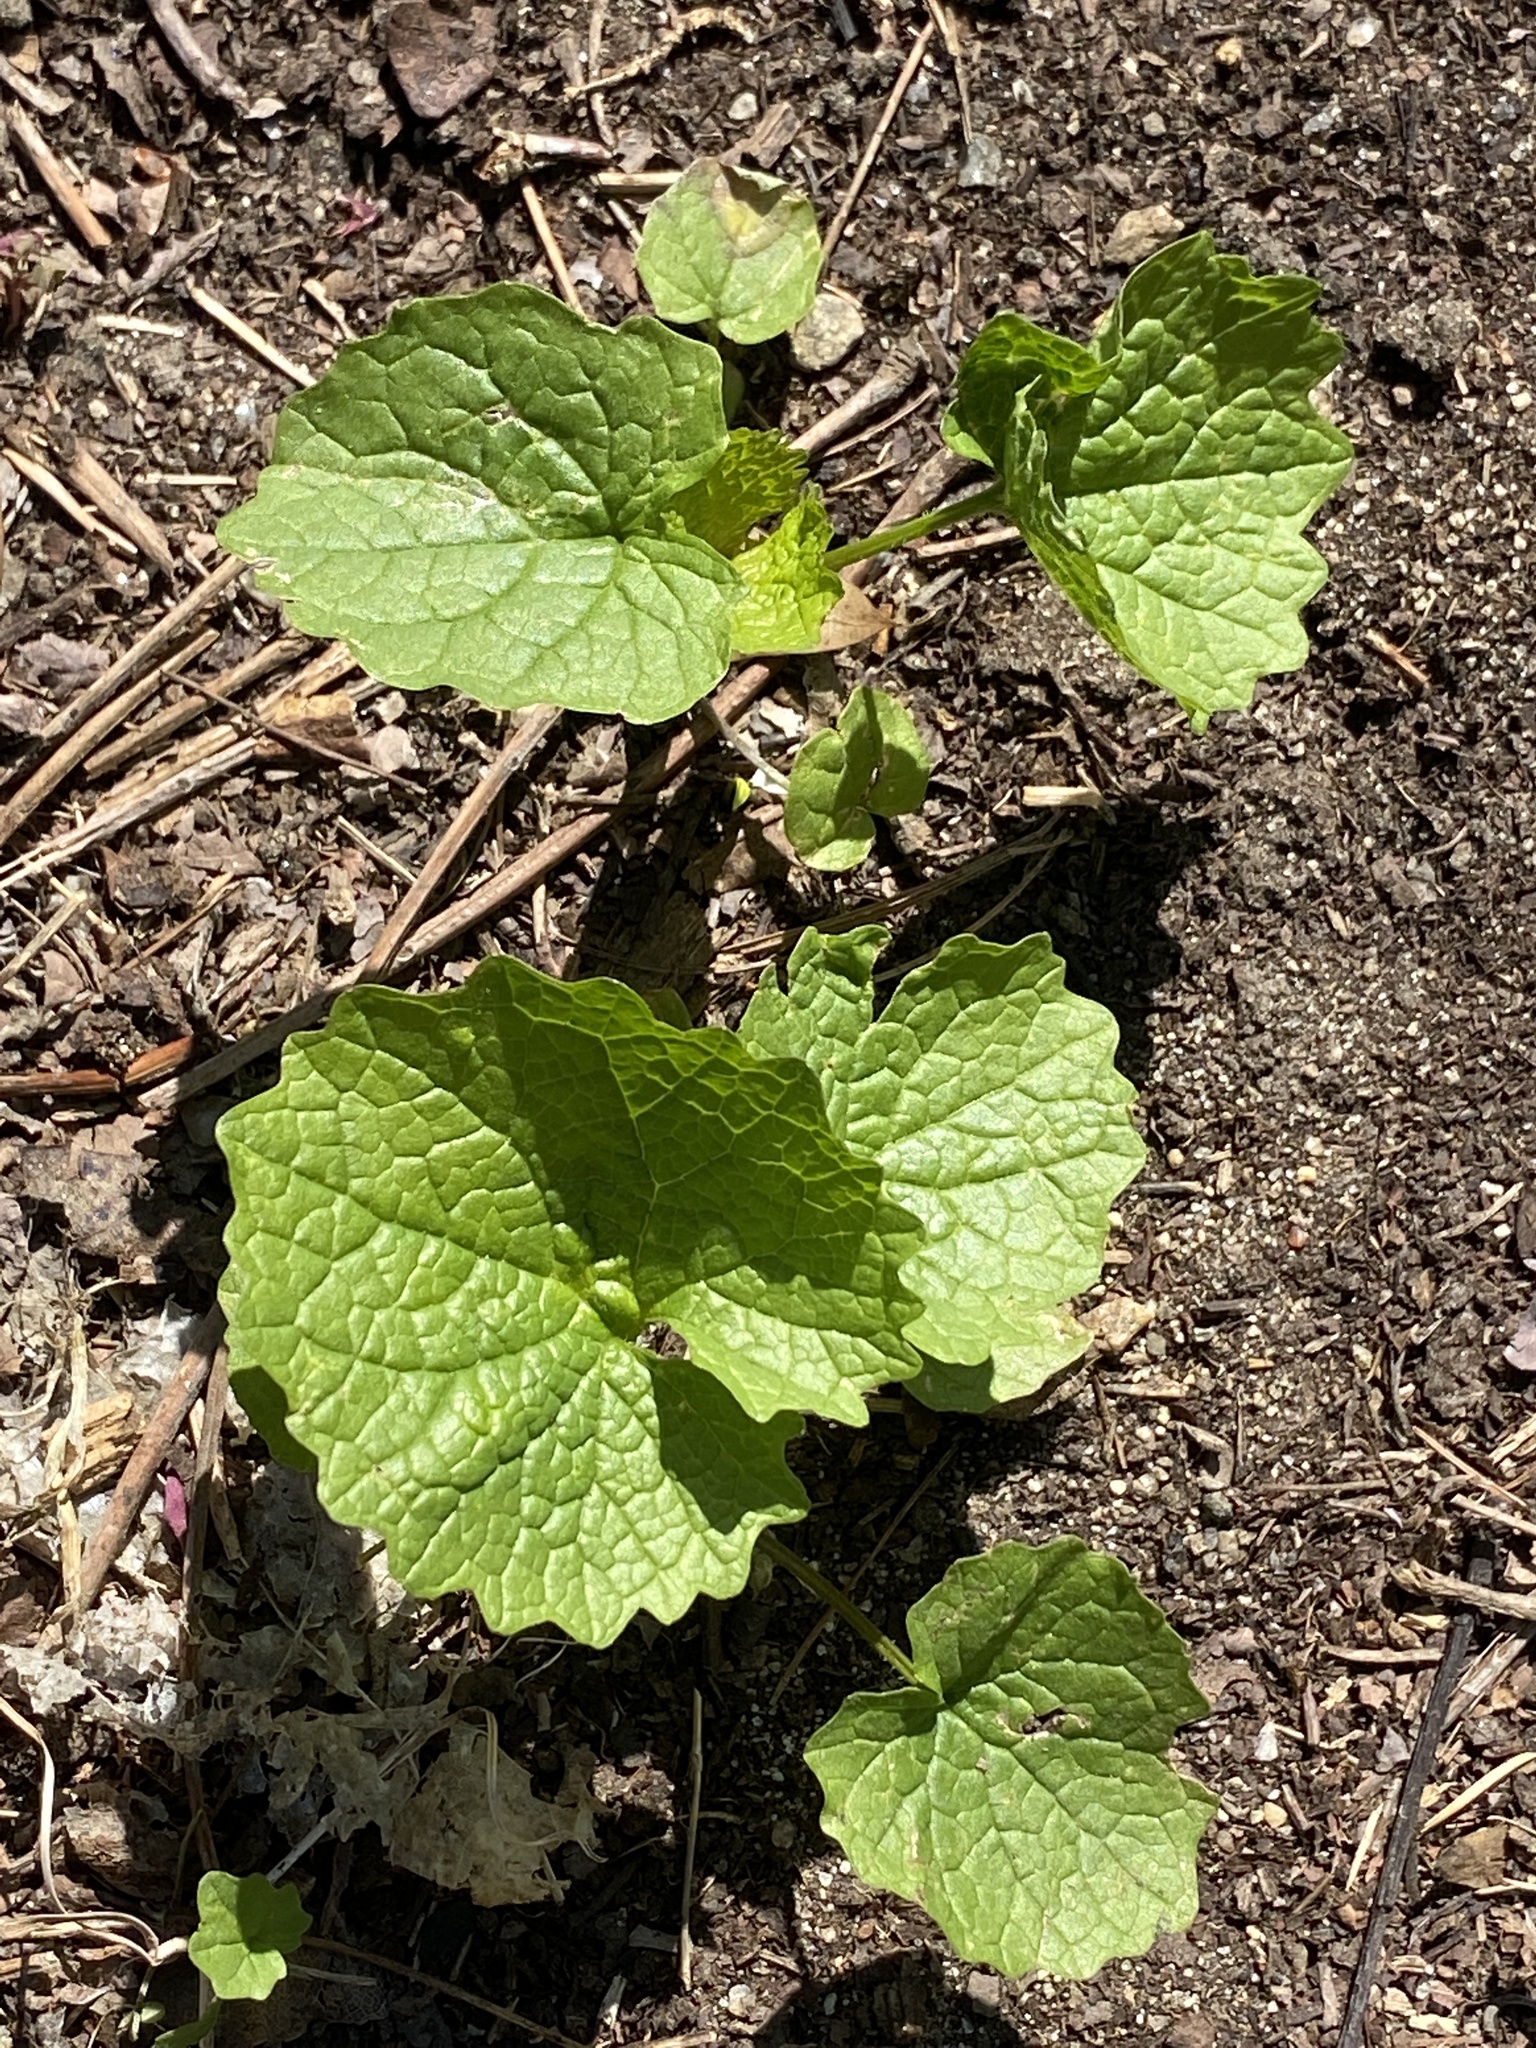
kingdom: Plantae
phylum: Tracheophyta
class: Magnoliopsida
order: Brassicales
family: Brassicaceae
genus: Alliaria
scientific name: Alliaria petiolata
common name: Garlic mustard
